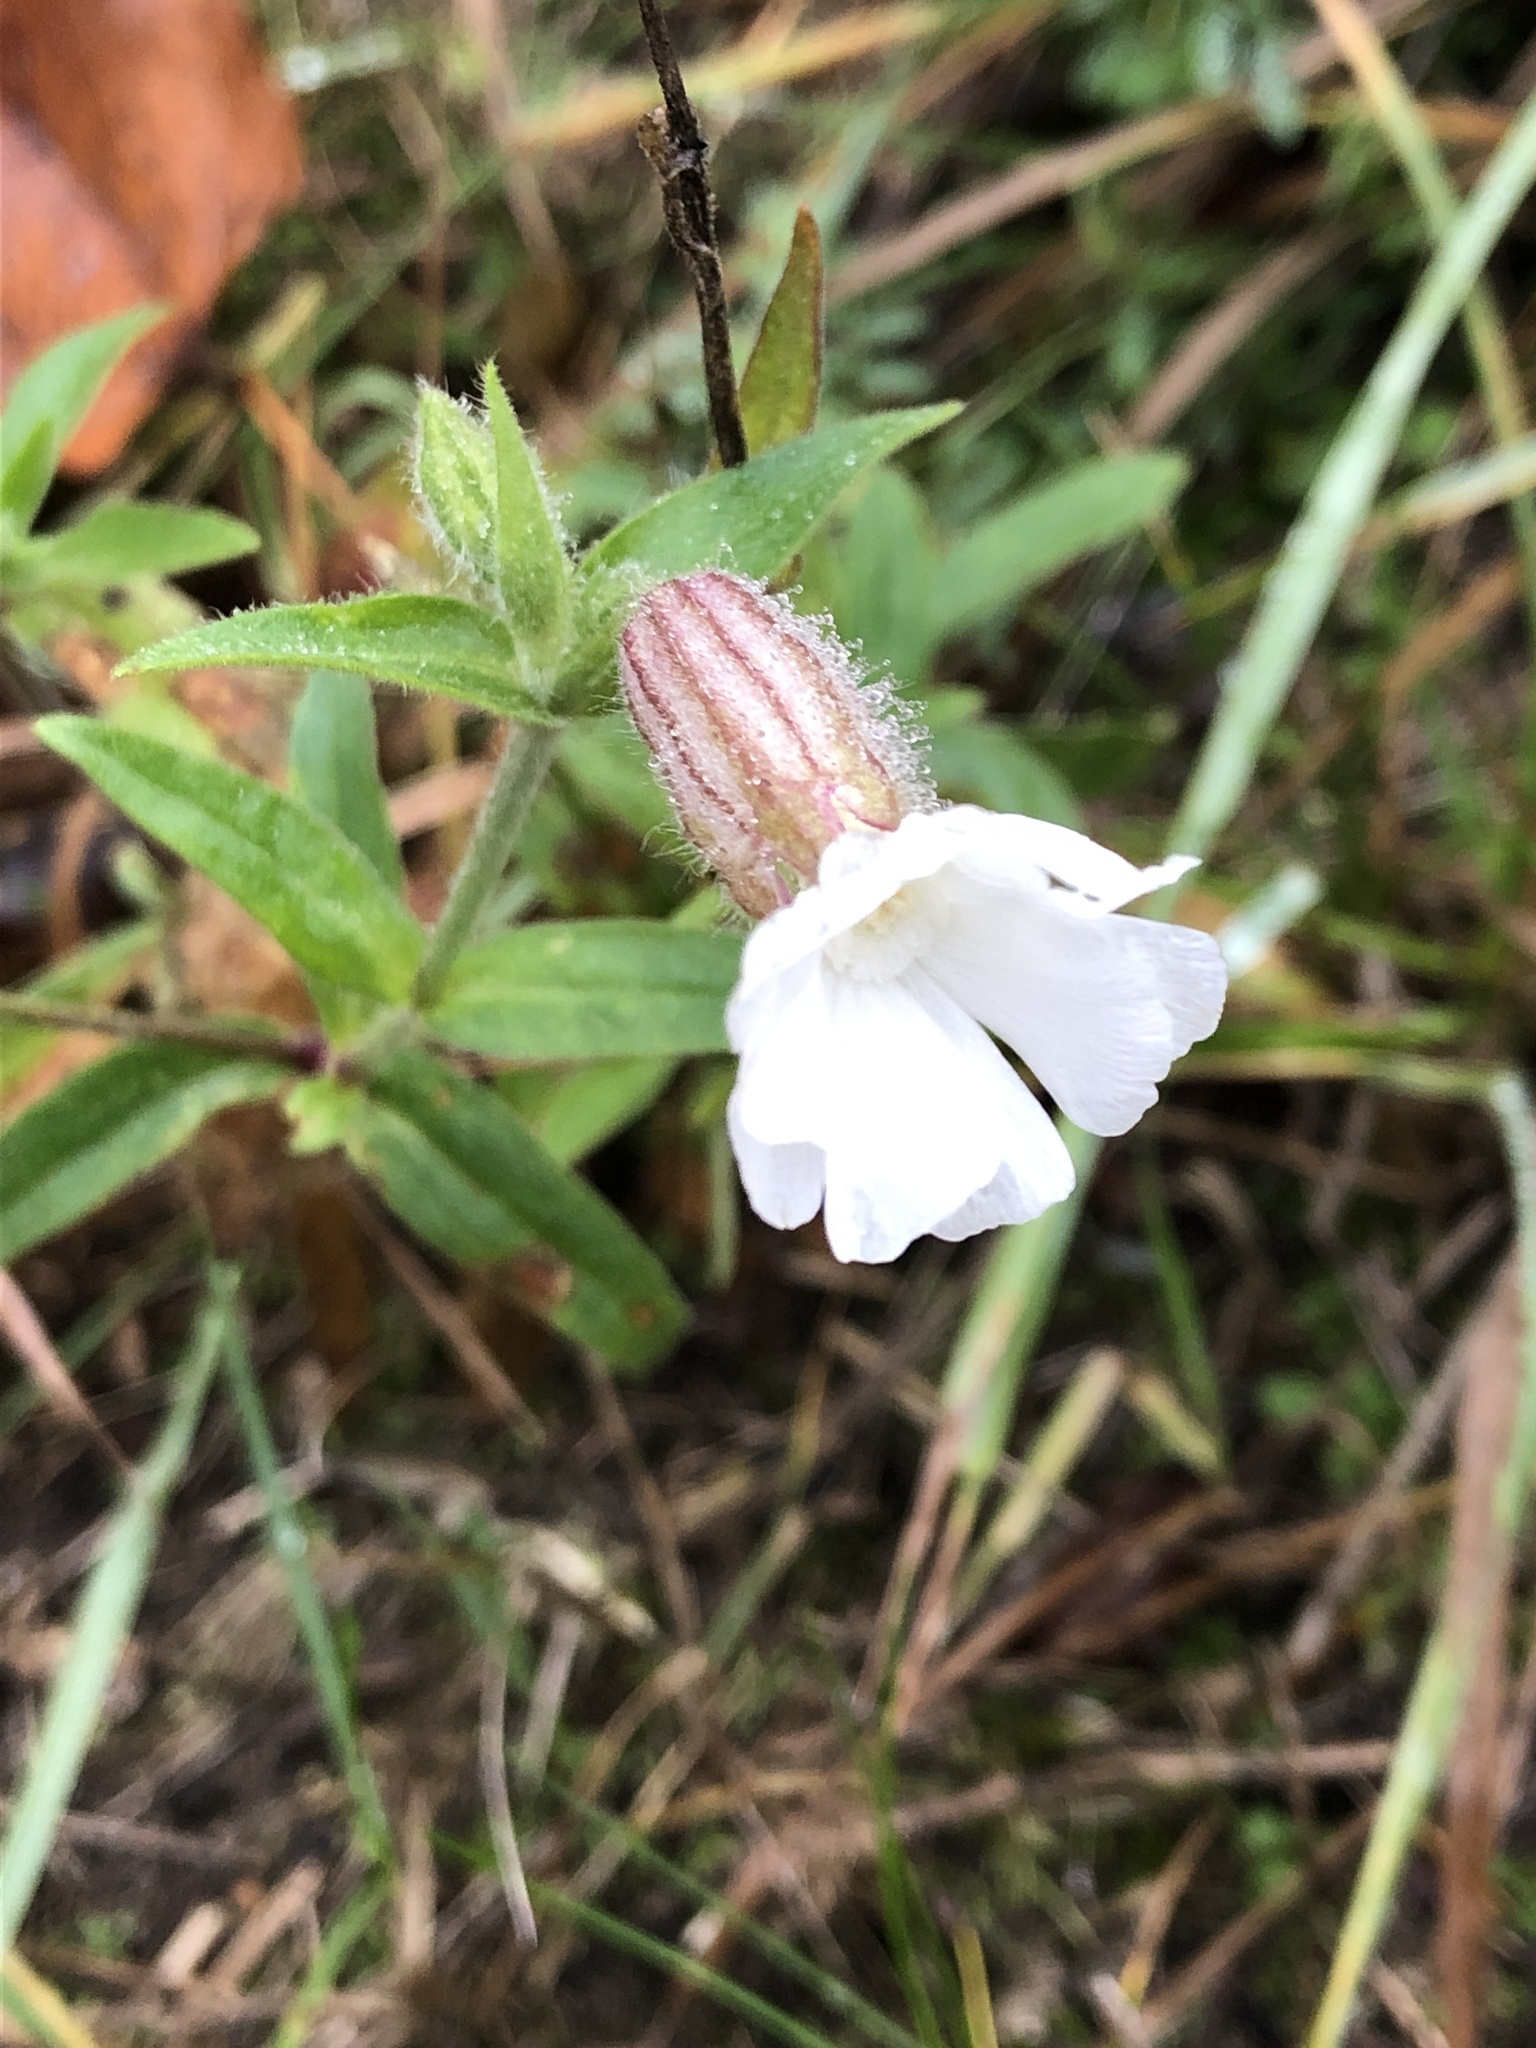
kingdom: Plantae
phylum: Tracheophyta
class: Magnoliopsida
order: Caryophyllales
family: Caryophyllaceae
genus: Silene
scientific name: Silene latifolia
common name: White campion
